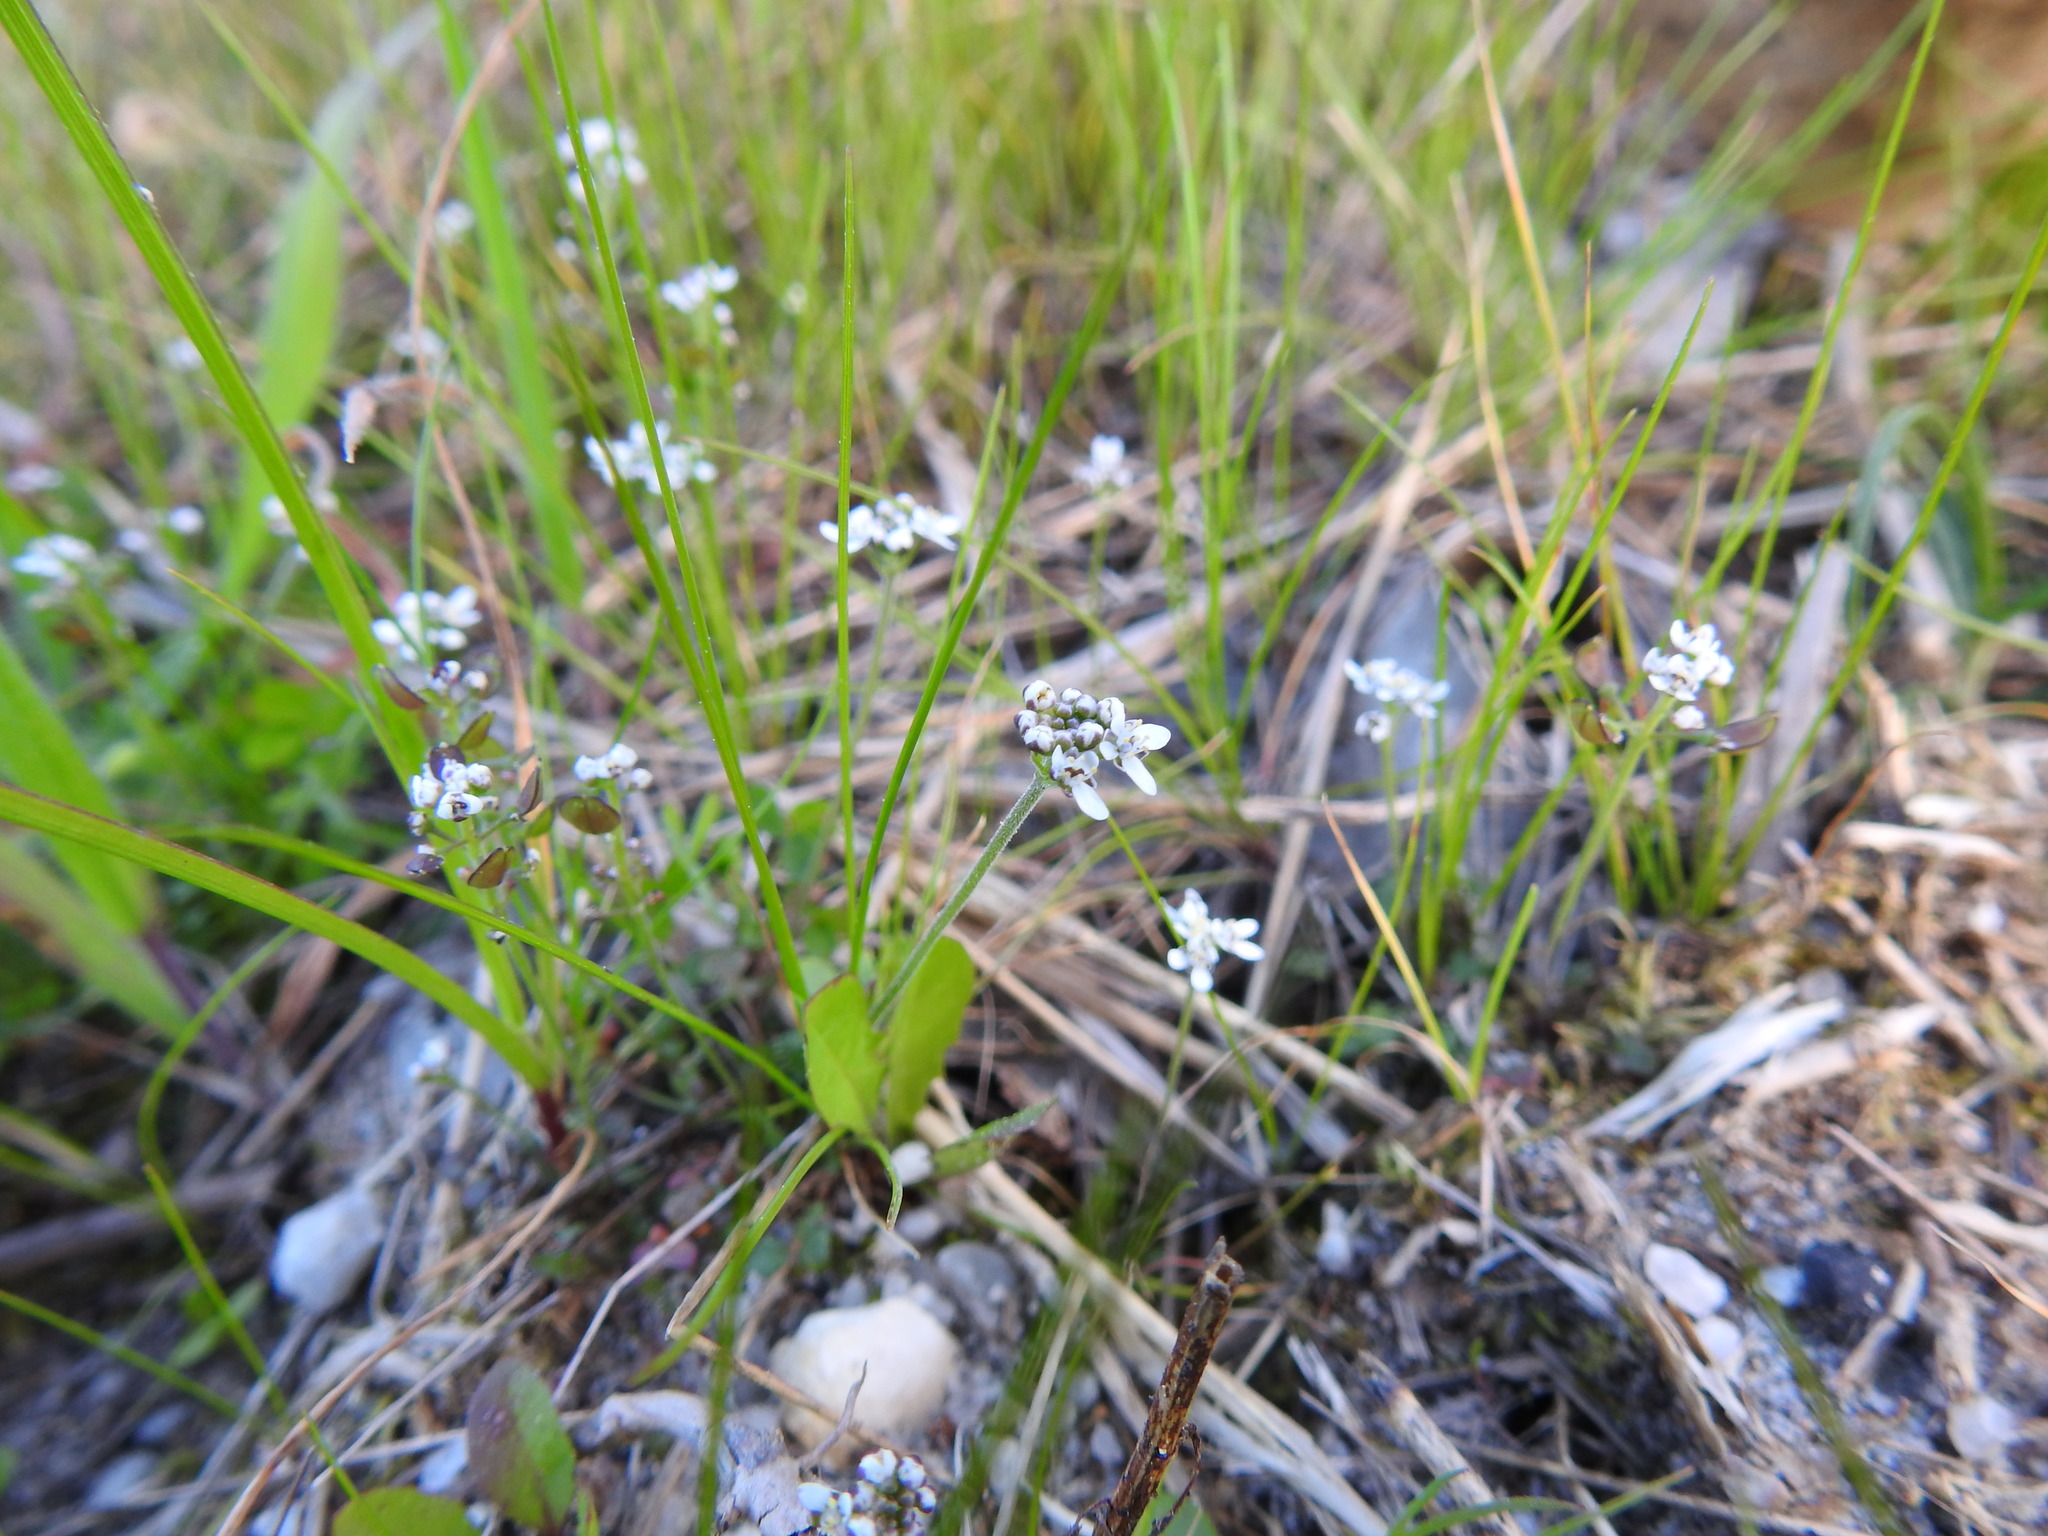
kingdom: Plantae
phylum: Tracheophyta
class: Magnoliopsida
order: Brassicales
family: Brassicaceae
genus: Teesdalia
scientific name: Teesdalia nudicaulis
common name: Shepherd's cress
